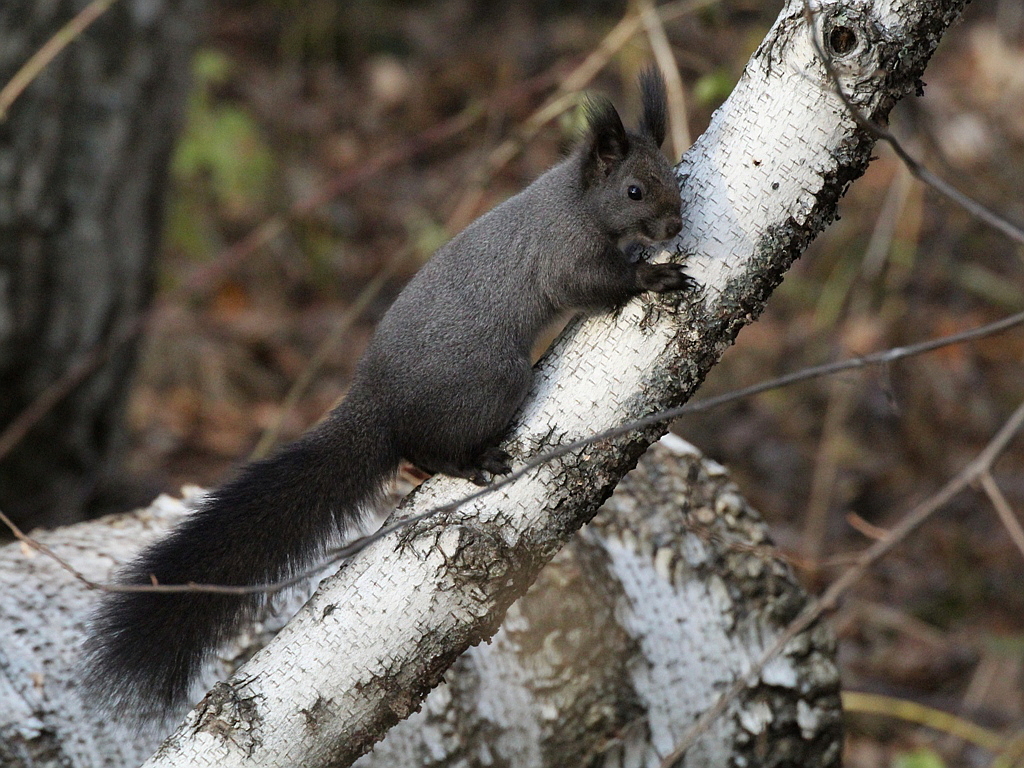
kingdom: Animalia
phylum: Chordata
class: Mammalia
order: Rodentia
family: Sciuridae
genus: Sciurus
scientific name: Sciurus vulgaris
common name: Eurasian red squirrel
